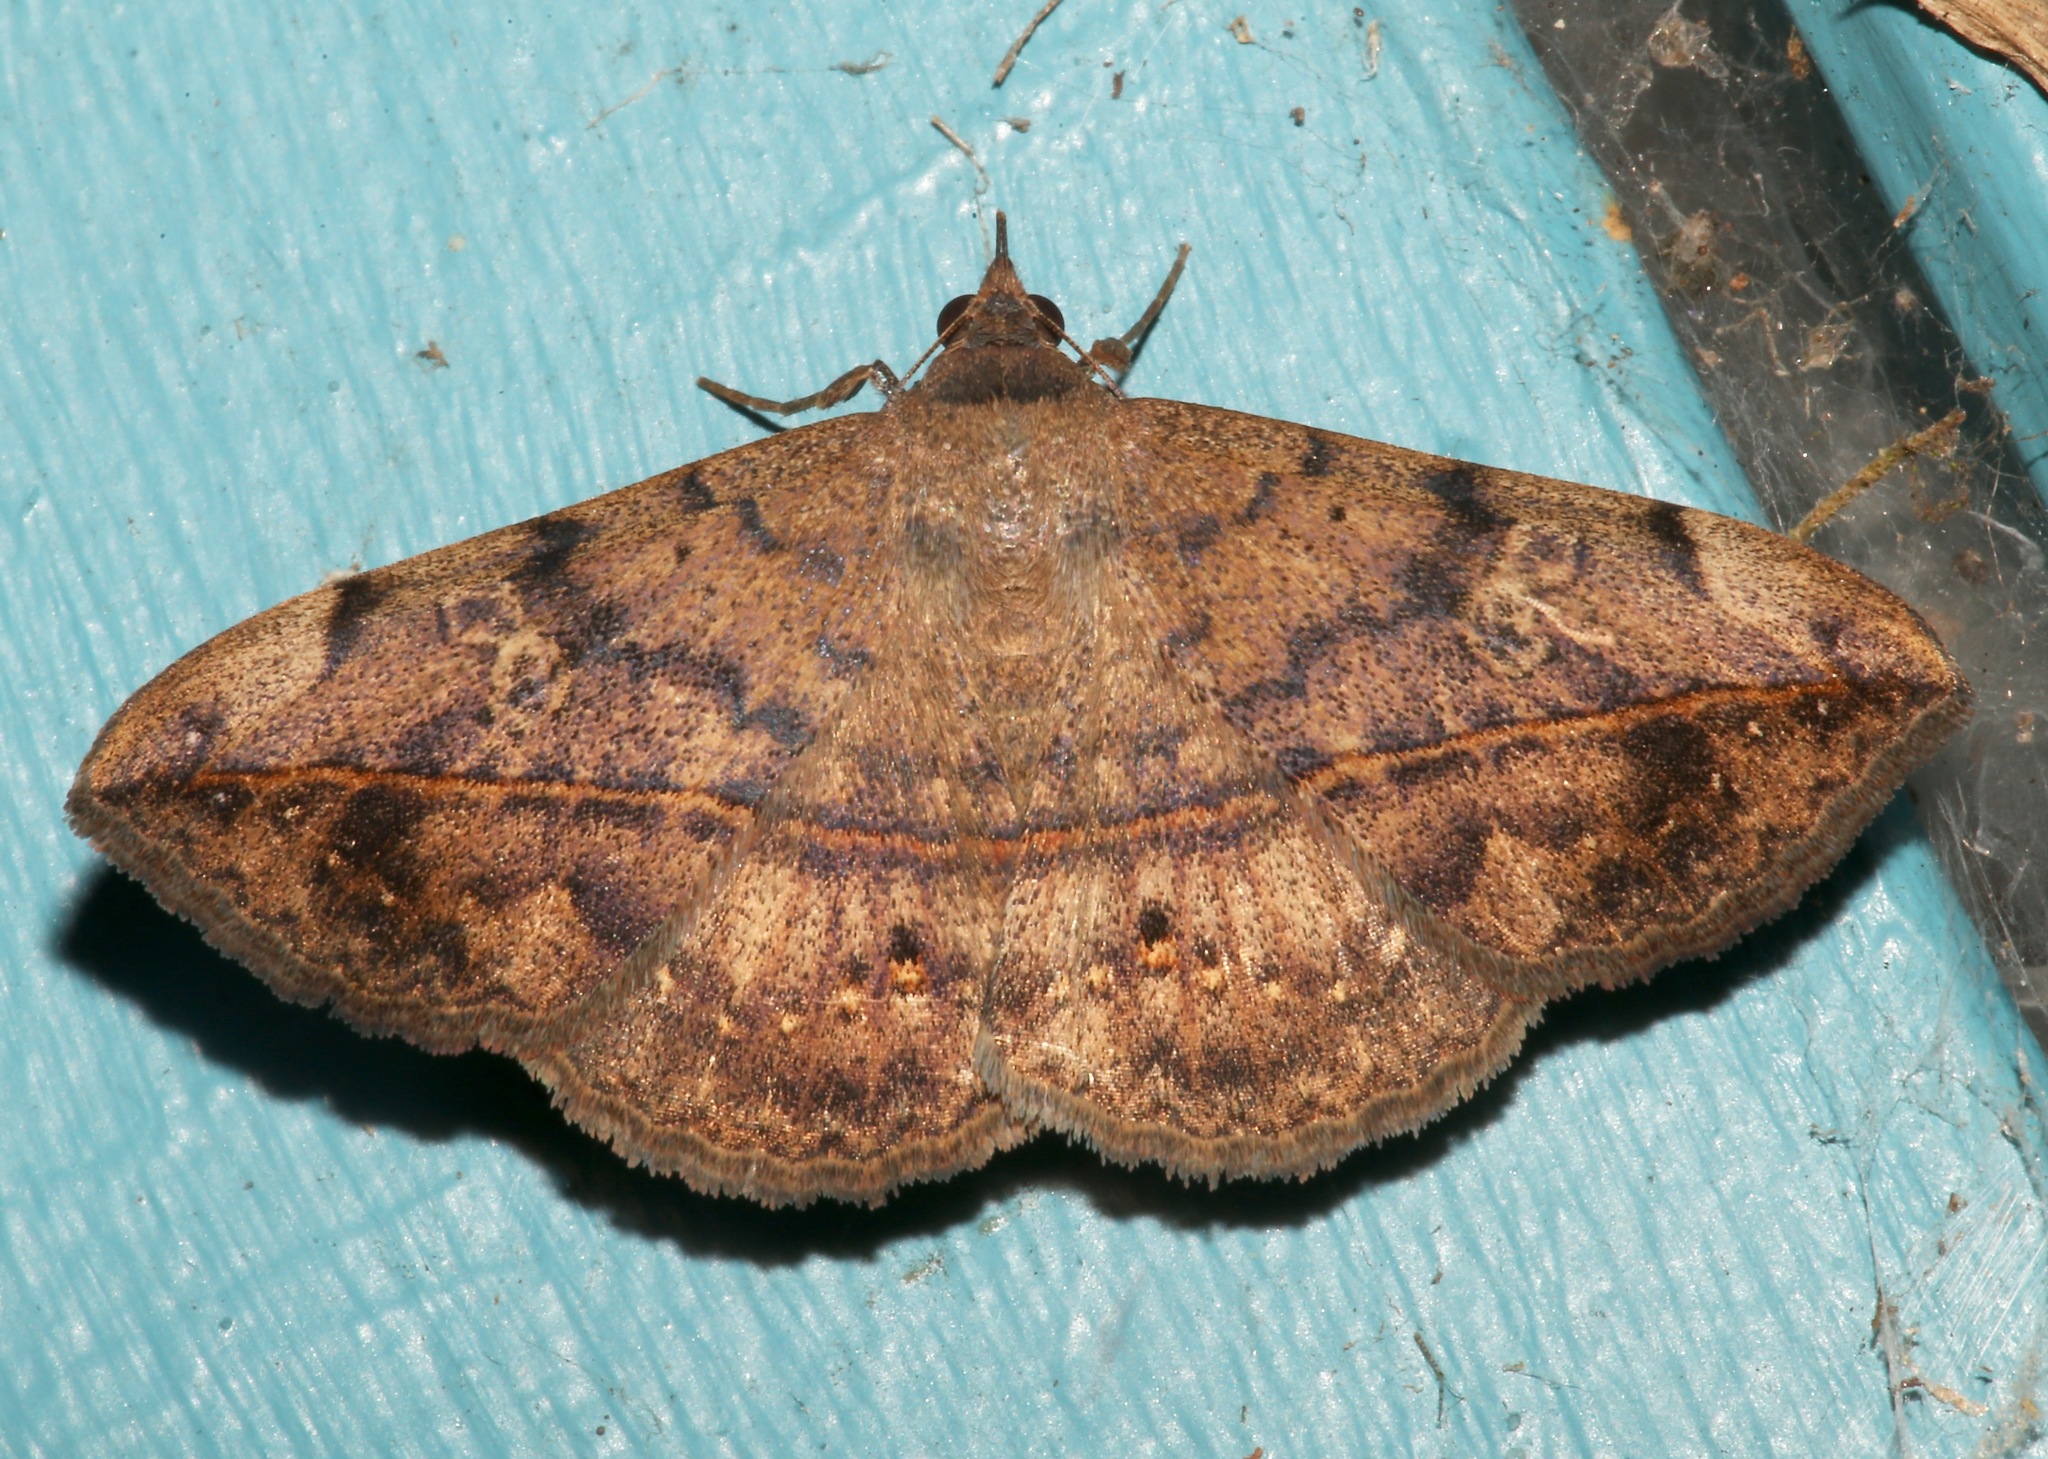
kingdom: Animalia
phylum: Arthropoda
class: Insecta
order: Lepidoptera
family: Erebidae
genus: Anticarsia
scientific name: Anticarsia gemmatalis
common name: Cutworm moth
